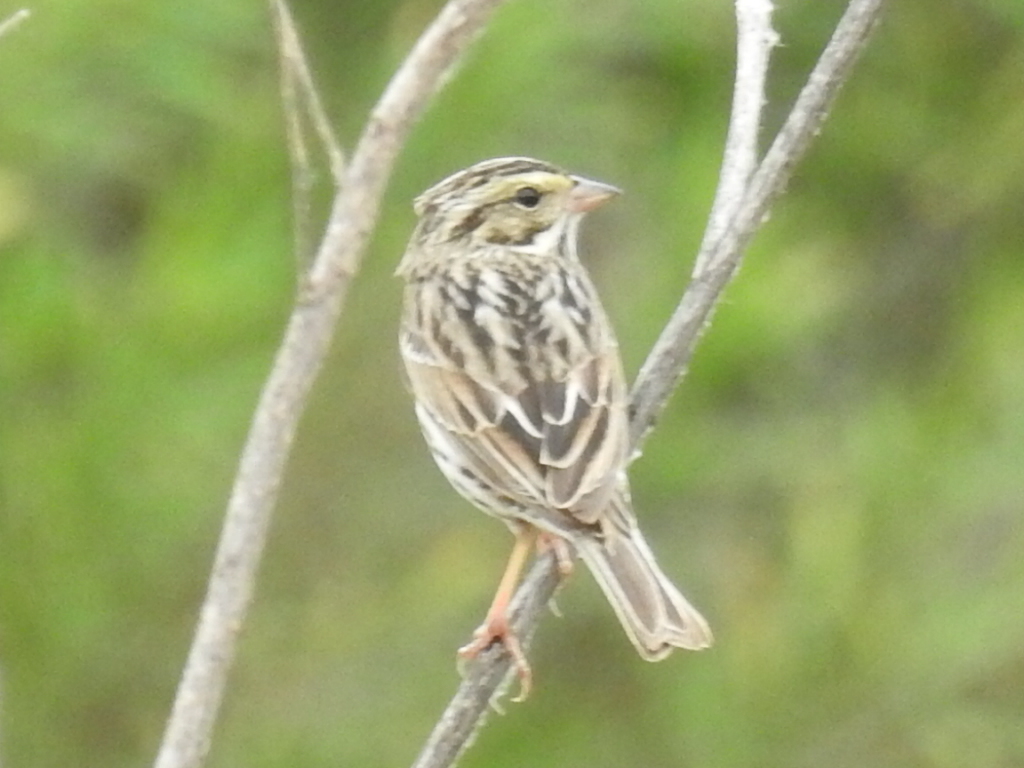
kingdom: Animalia
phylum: Chordata
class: Aves
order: Passeriformes
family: Passerellidae
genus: Passerculus
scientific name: Passerculus sandwichensis
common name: Savannah sparrow
